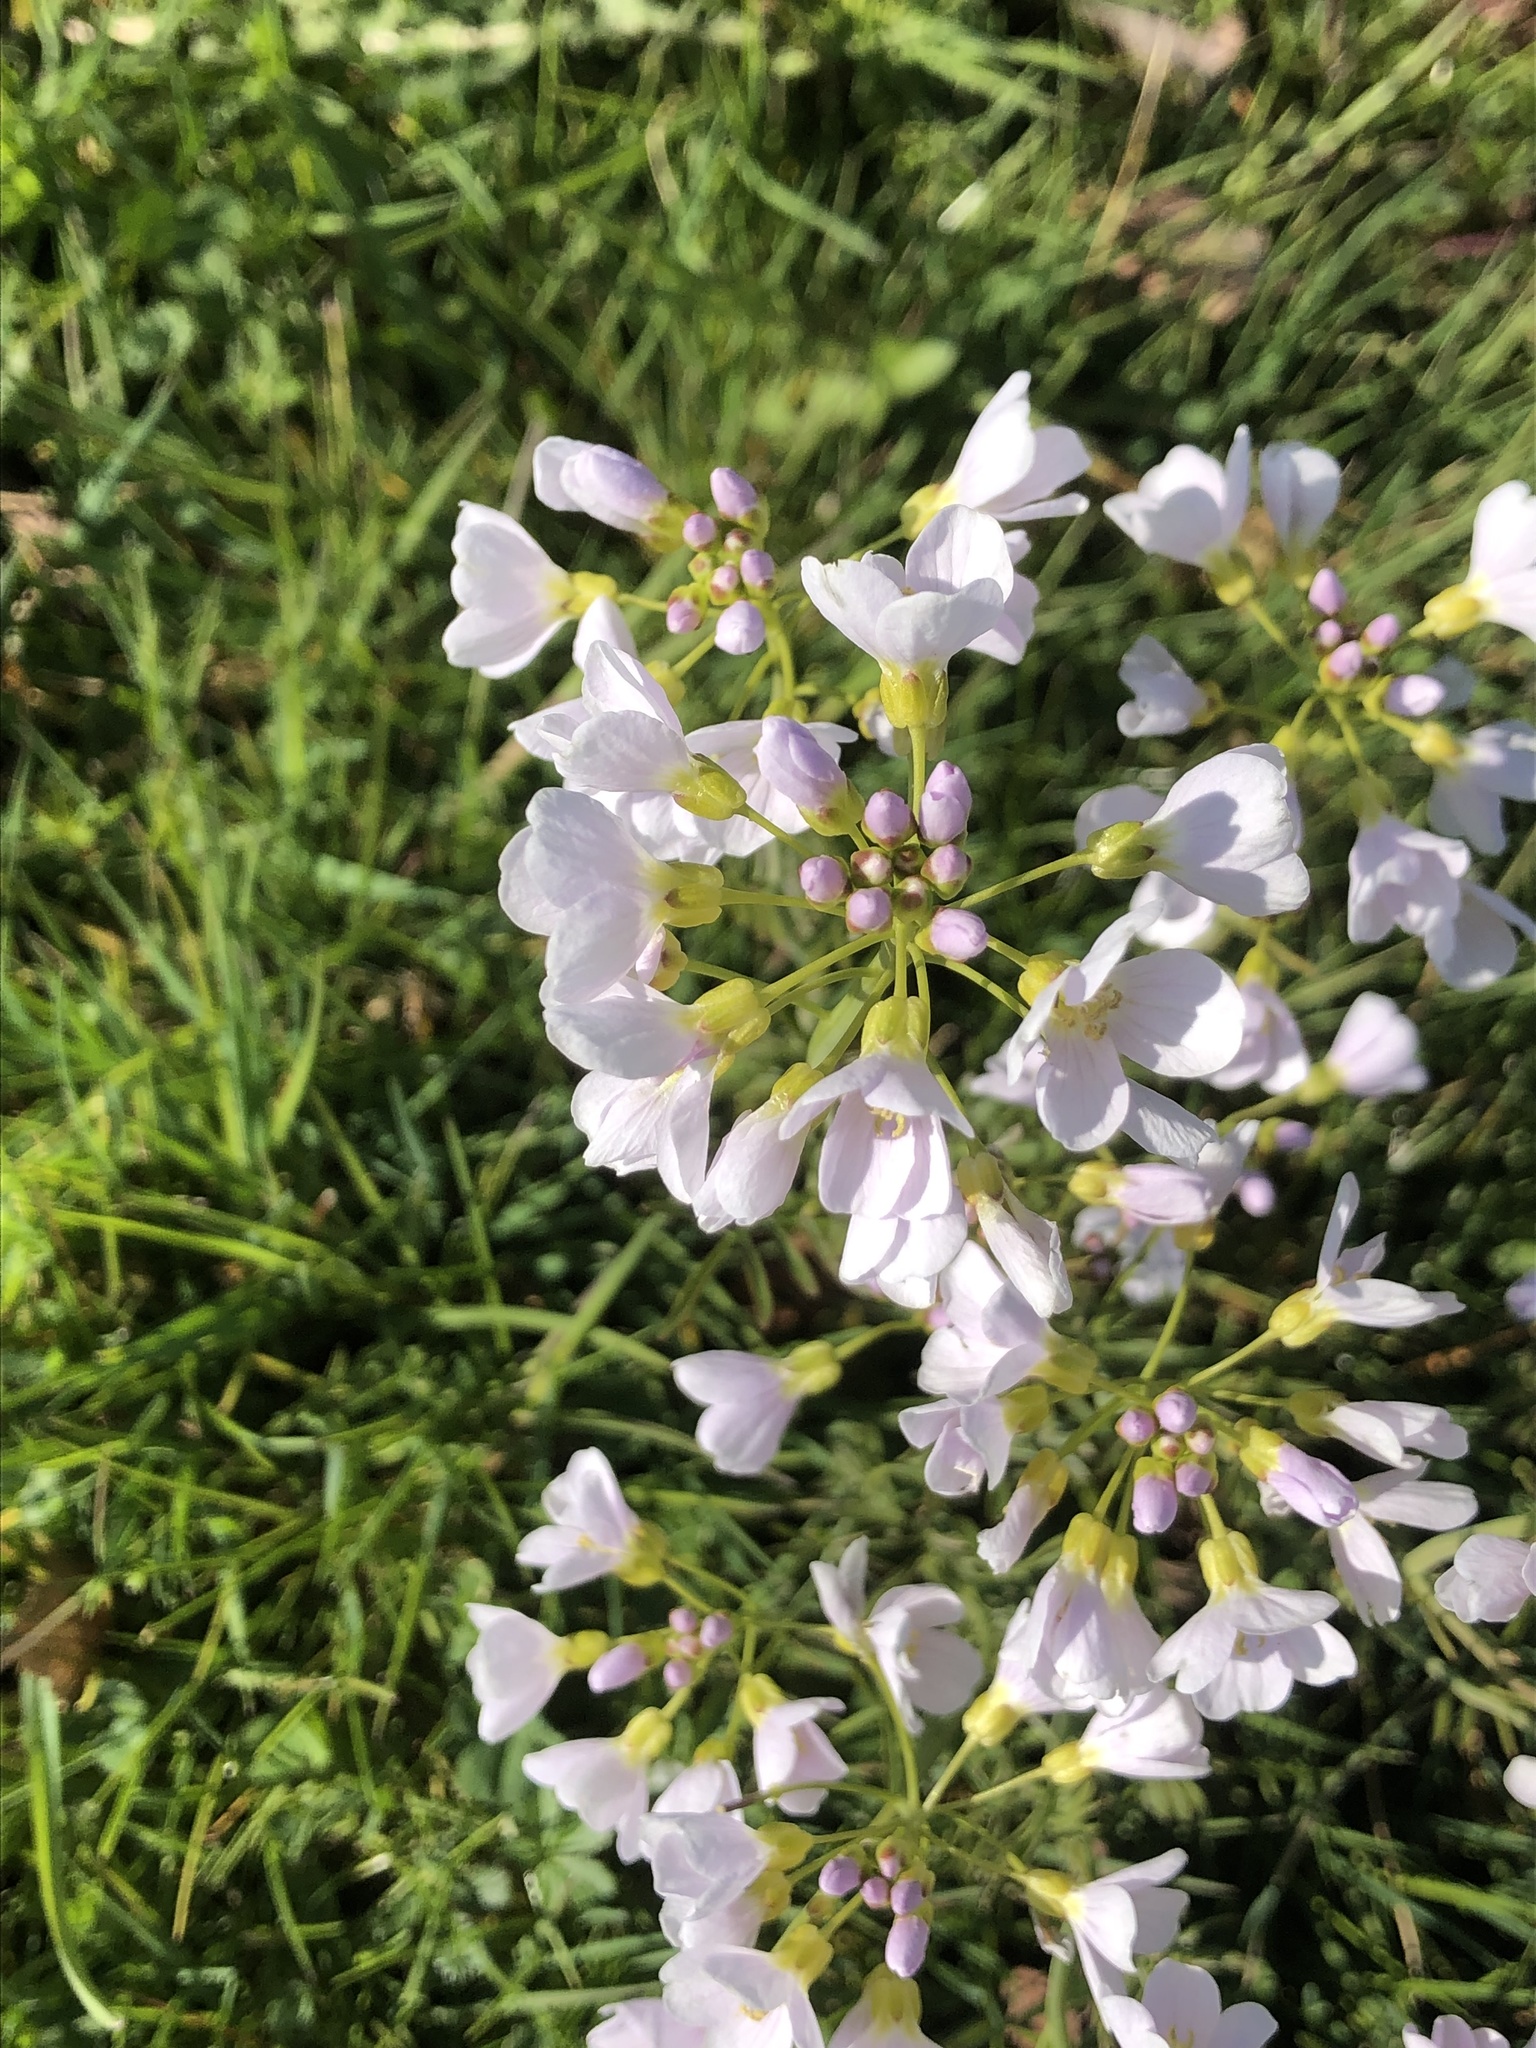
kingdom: Plantae
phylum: Tracheophyta
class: Magnoliopsida
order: Brassicales
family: Brassicaceae
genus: Cardamine
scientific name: Cardamine pratensis
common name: Cuckoo flower
